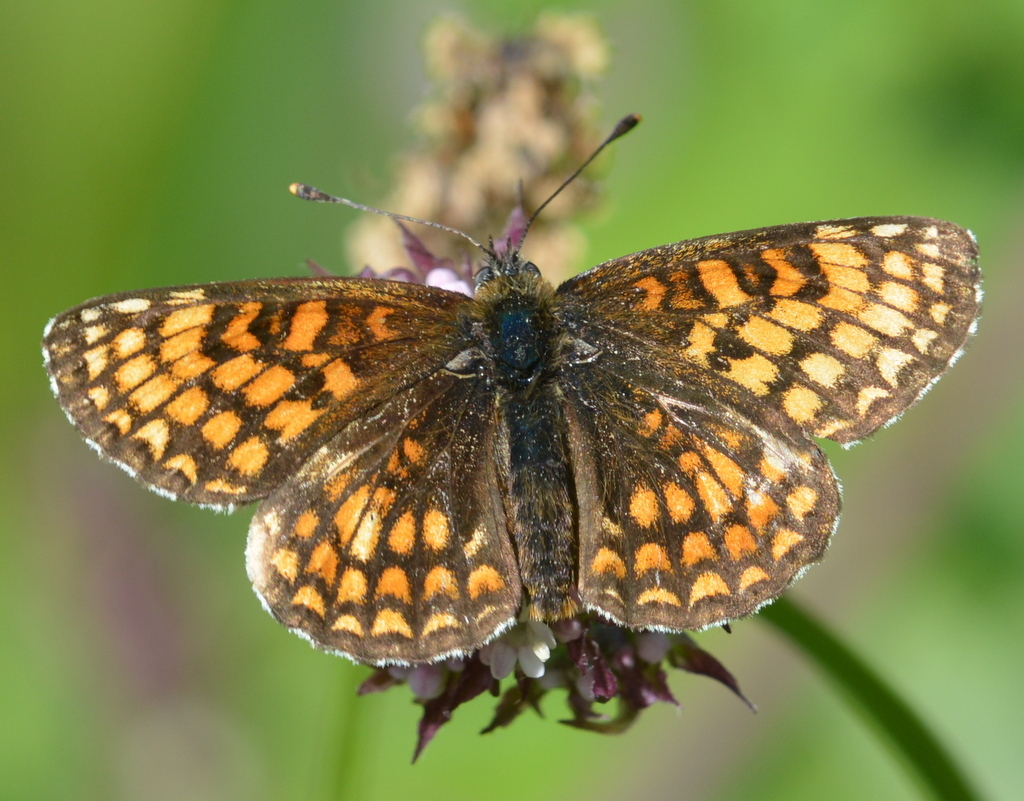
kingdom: Animalia
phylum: Arthropoda
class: Insecta
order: Lepidoptera
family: Nymphalidae
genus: Melitaea
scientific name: Melitaea athalia
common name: Heath fritillary
